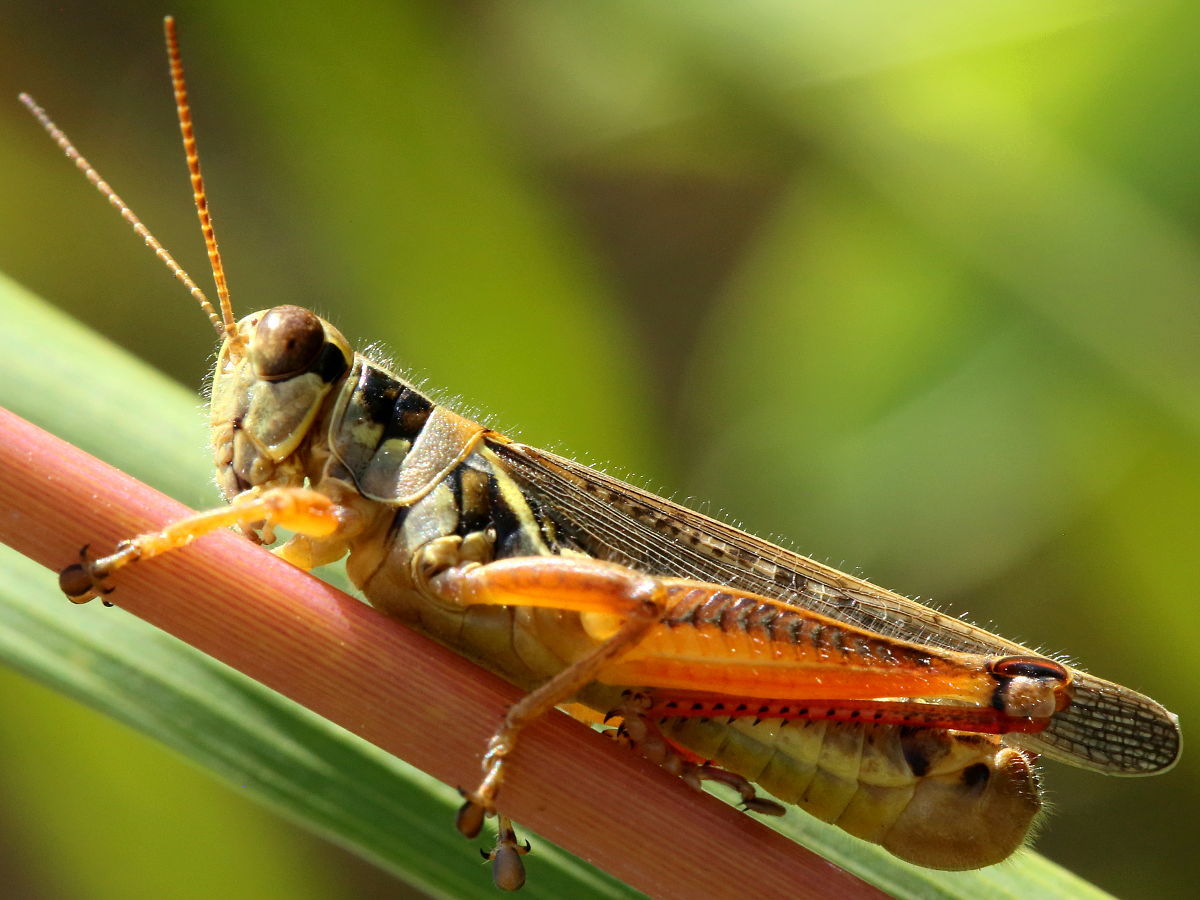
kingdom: Animalia
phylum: Arthropoda
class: Insecta
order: Orthoptera
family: Acrididae
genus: Melanoplus
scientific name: Melanoplus femurrubrum
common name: Red-legged grasshopper
